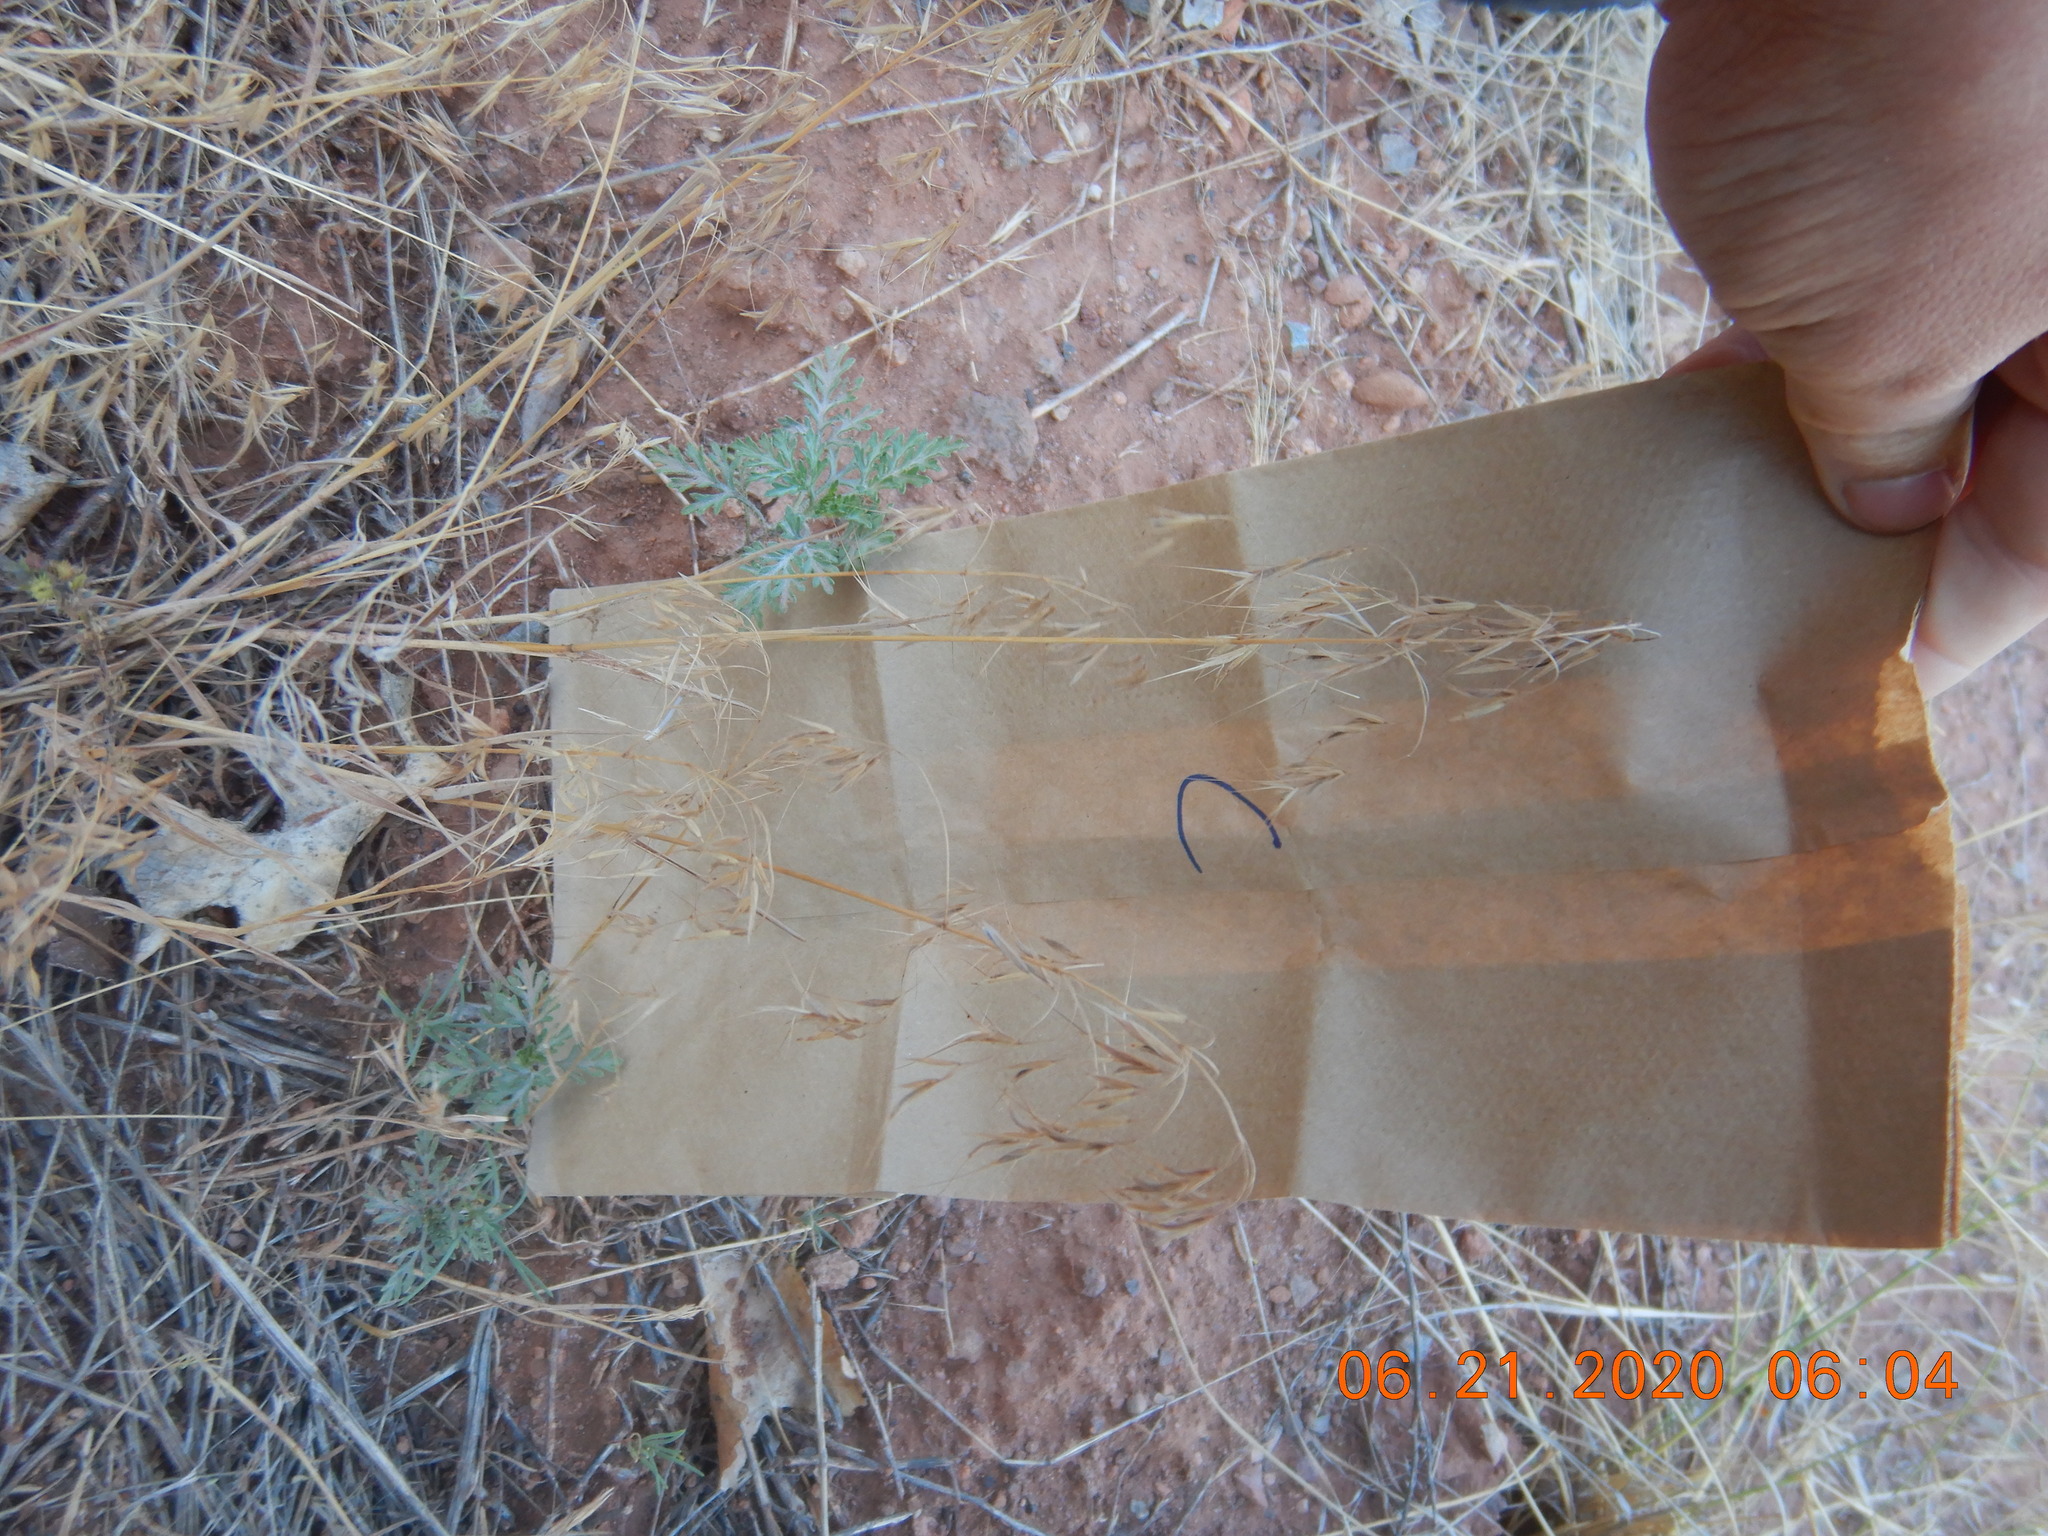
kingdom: Plantae
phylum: Tracheophyta
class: Liliopsida
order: Poales
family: Poaceae
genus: Bromus
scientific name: Bromus tectorum
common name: Cheatgrass
